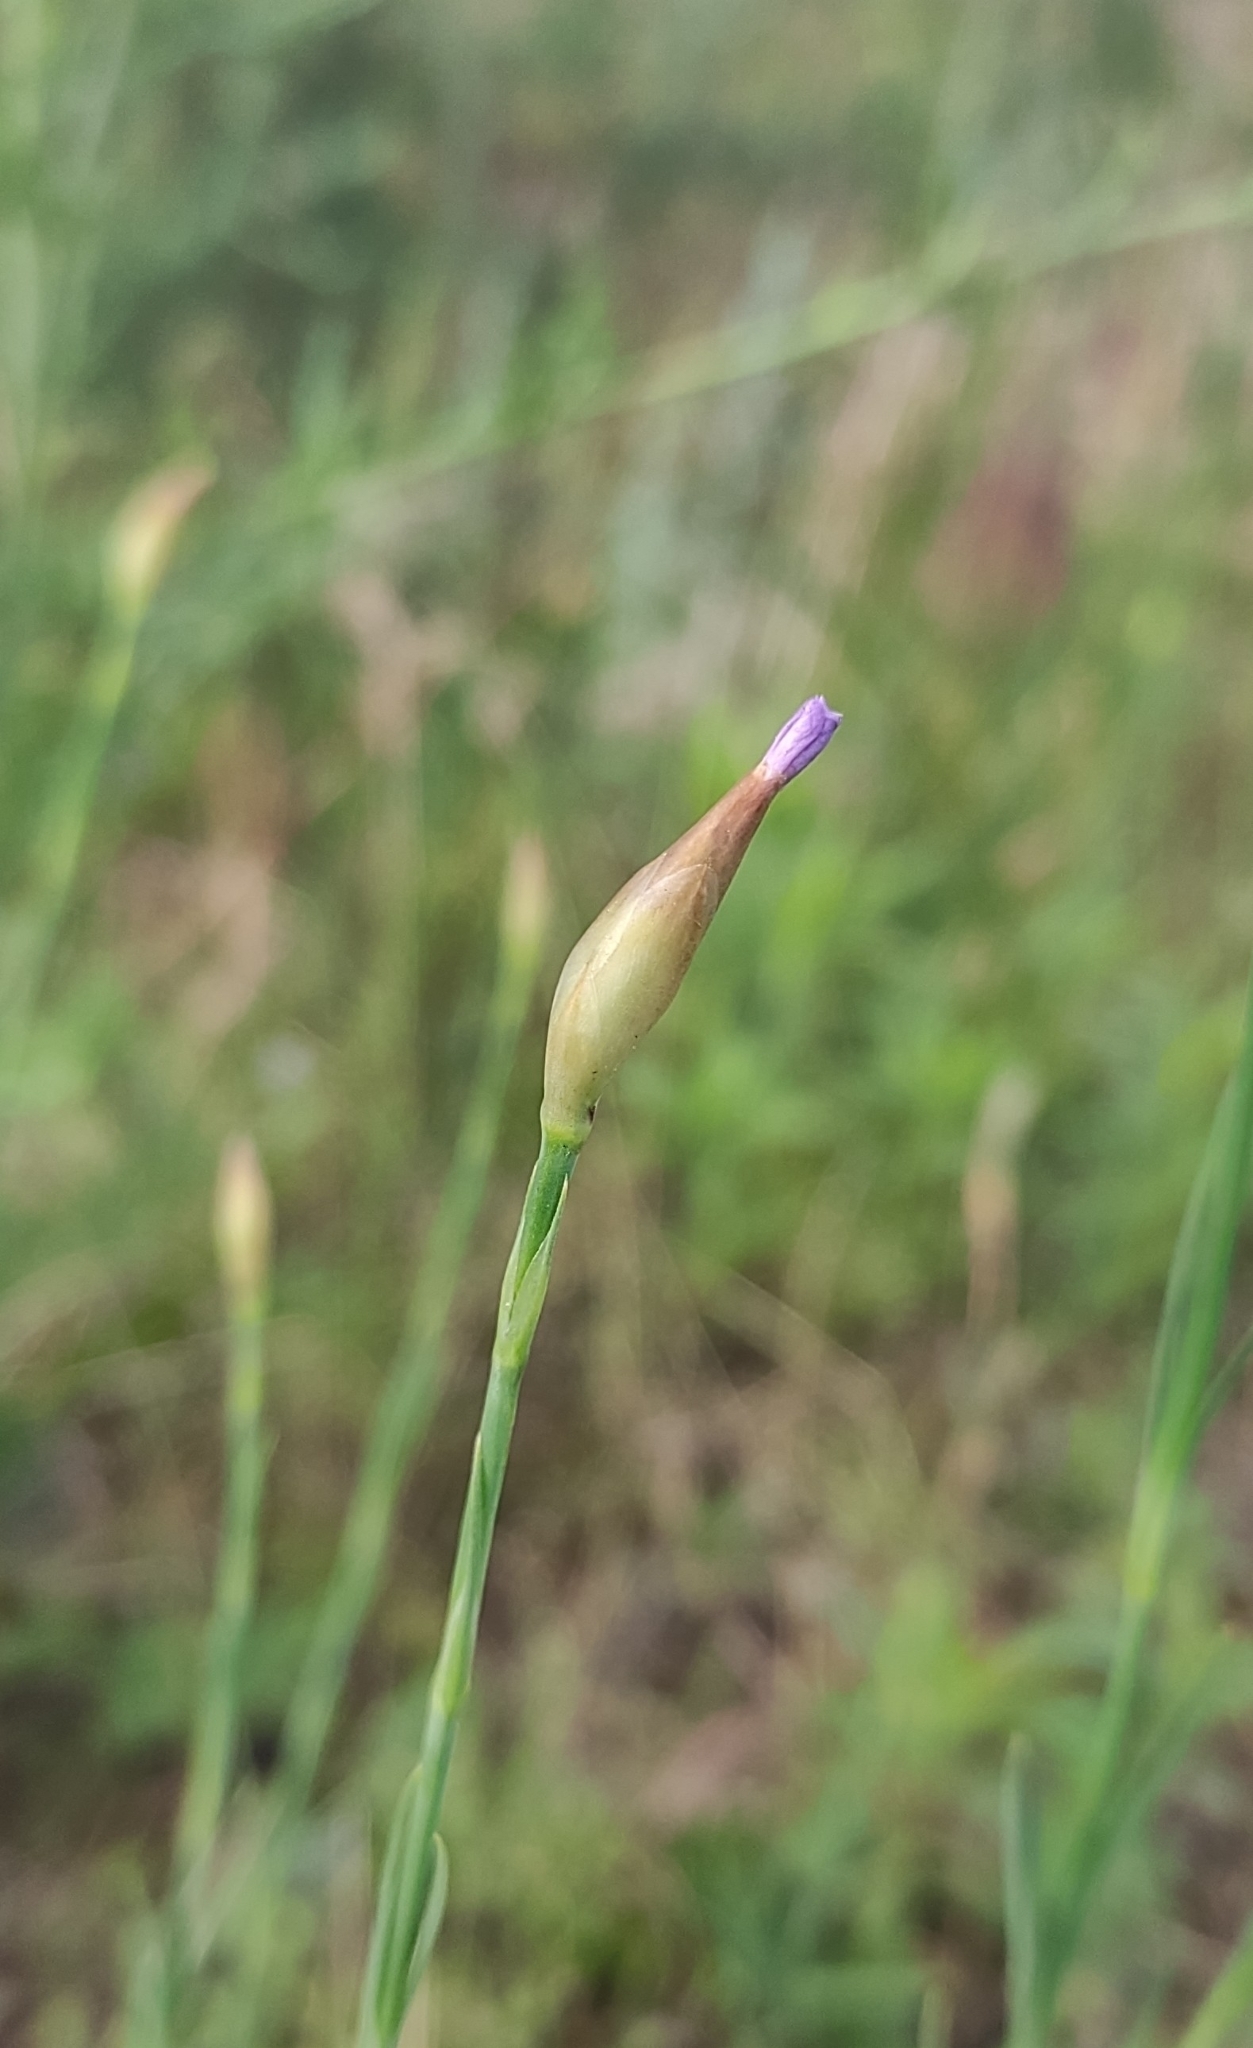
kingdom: Plantae
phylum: Tracheophyta
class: Magnoliopsida
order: Caryophyllales
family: Caryophyllaceae
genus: Petrorhagia
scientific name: Petrorhagia prolifera
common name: Proliferous pink
